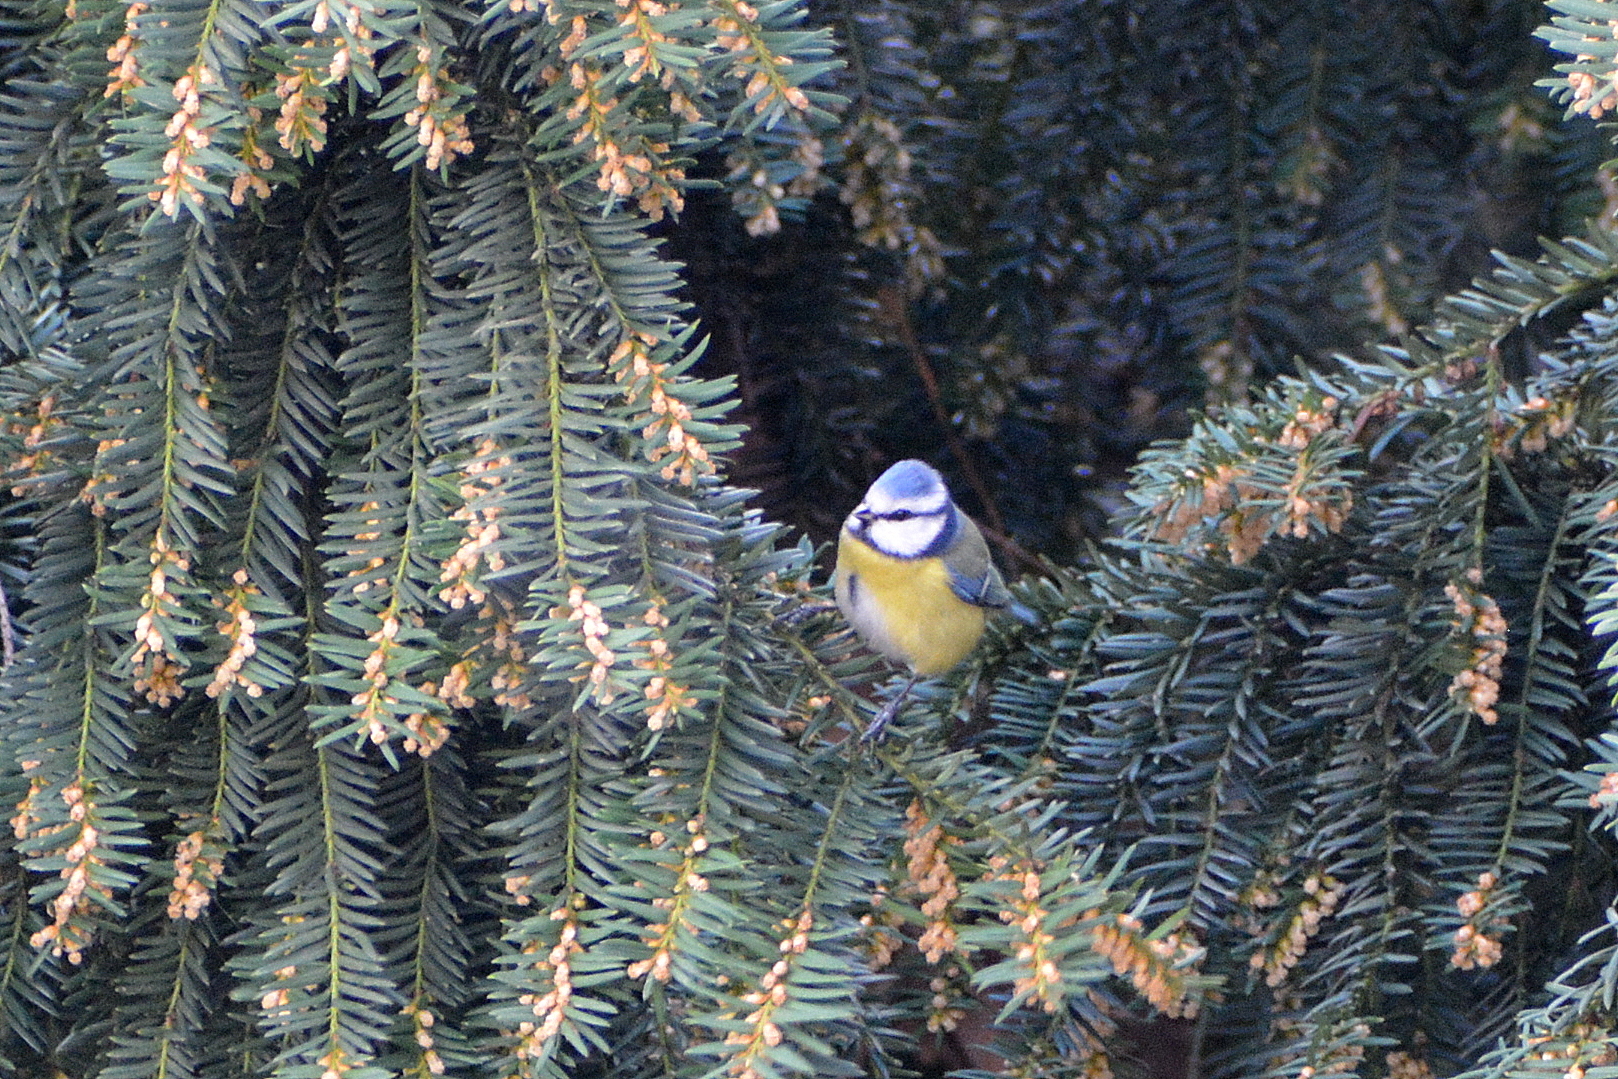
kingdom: Animalia
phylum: Chordata
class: Aves
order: Passeriformes
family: Paridae
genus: Cyanistes
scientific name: Cyanistes caeruleus
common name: Eurasian blue tit
